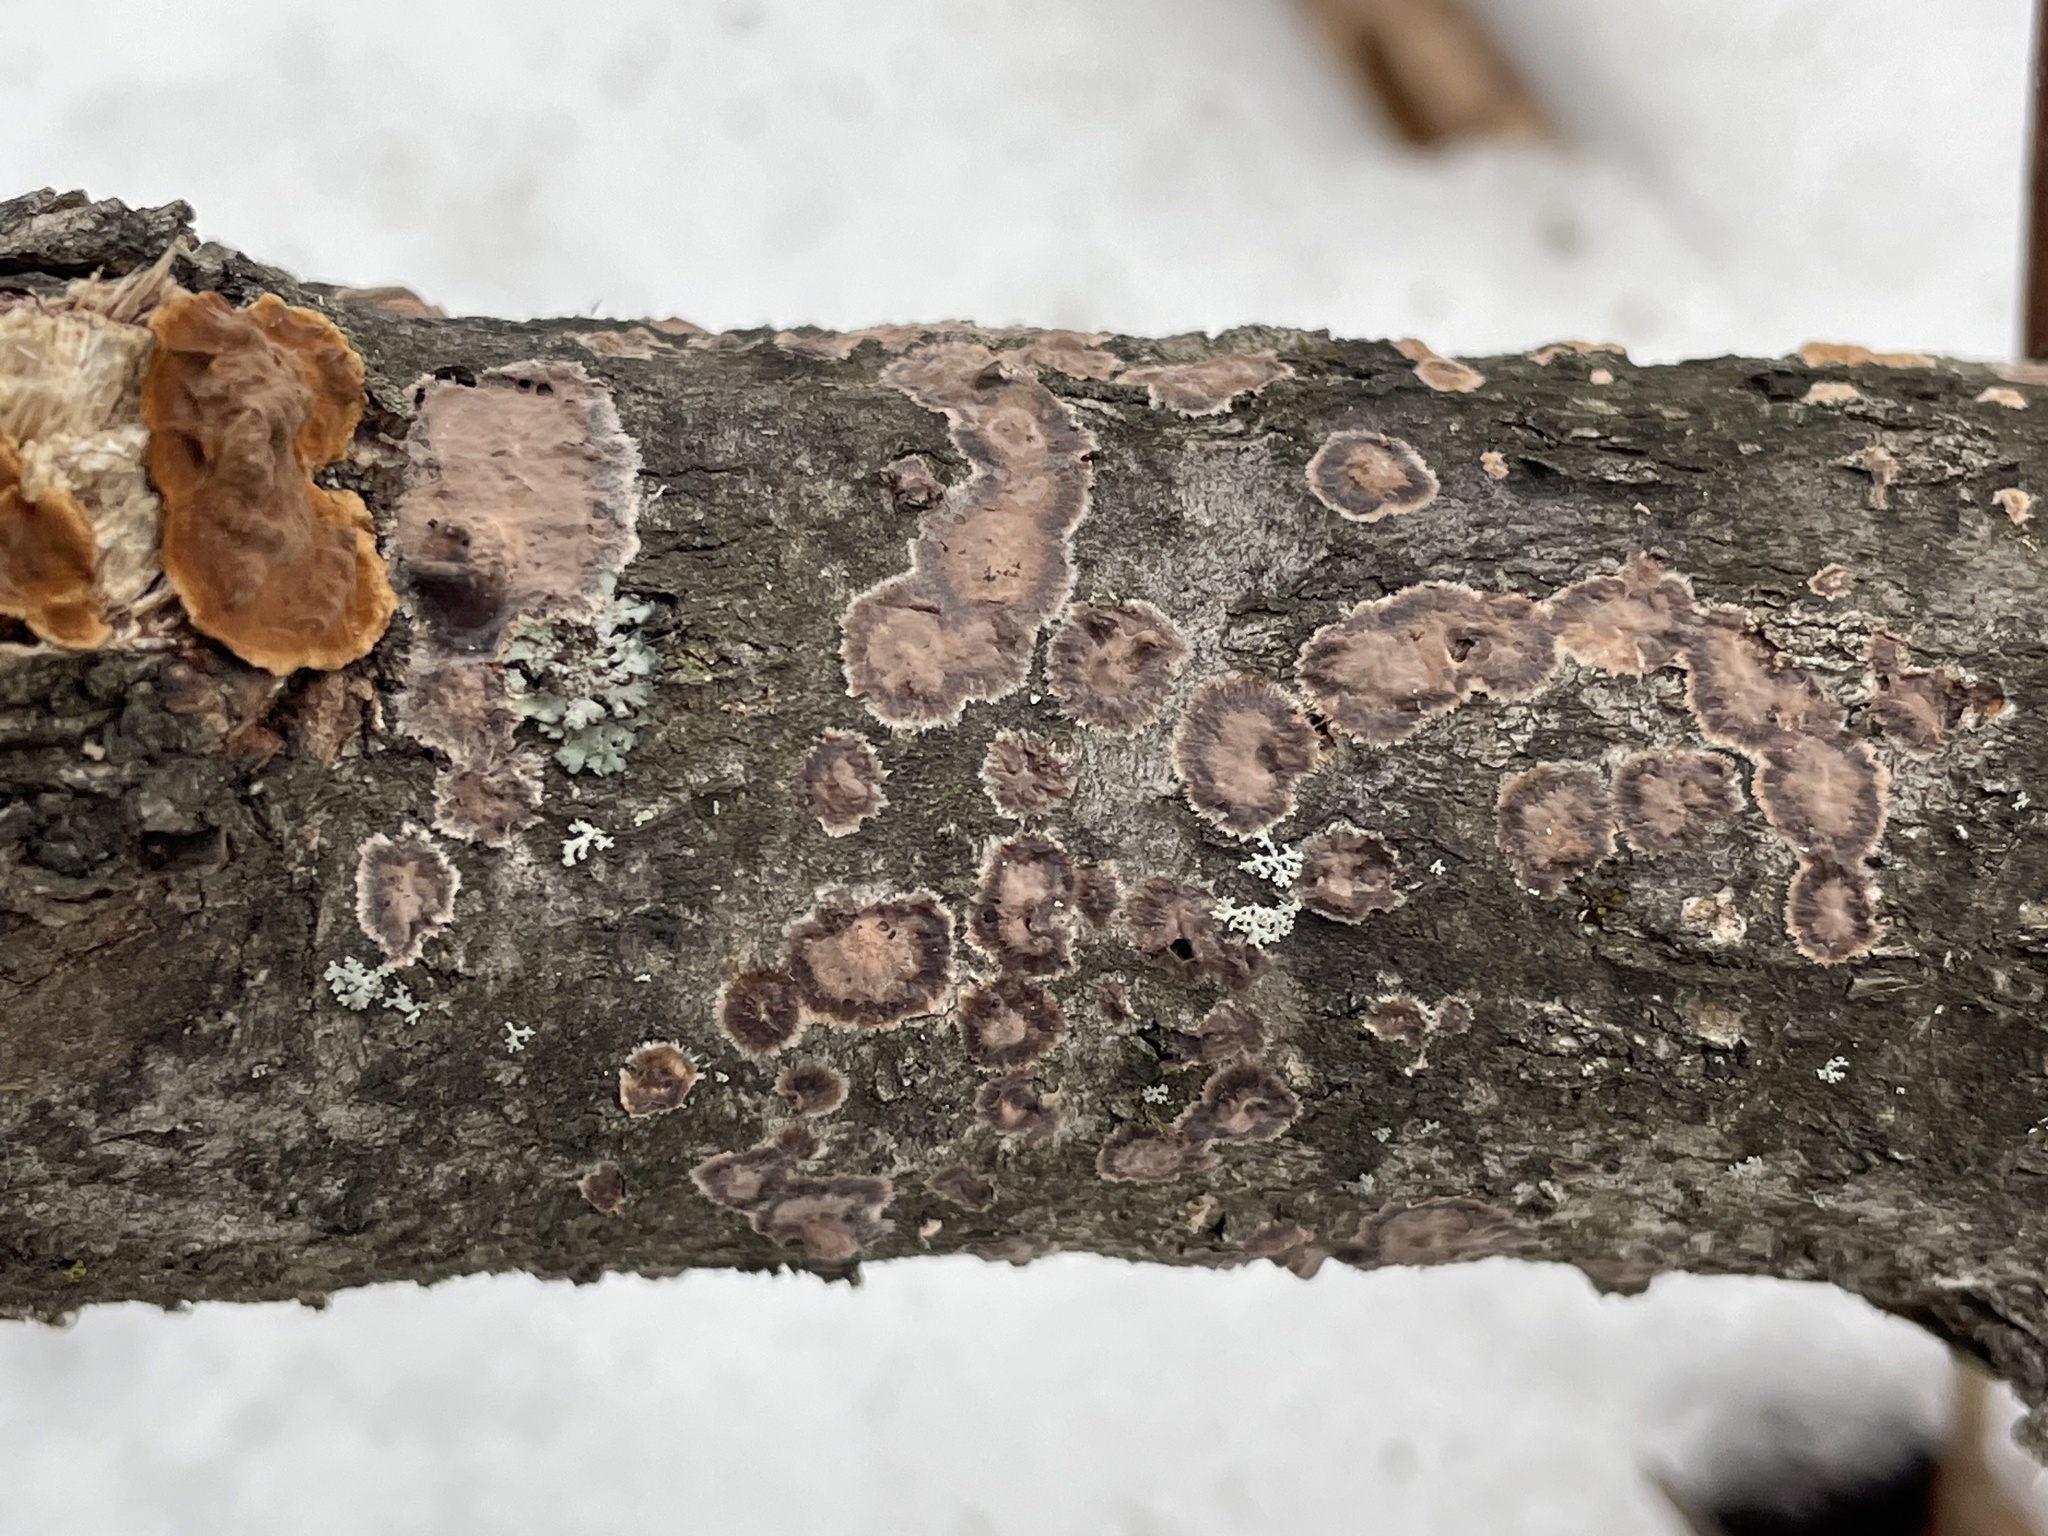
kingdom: Fungi
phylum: Basidiomycota
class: Agaricomycetes
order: Russulales
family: Peniophoraceae
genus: Peniophora
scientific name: Peniophora albobadia
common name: Giraffe spots
